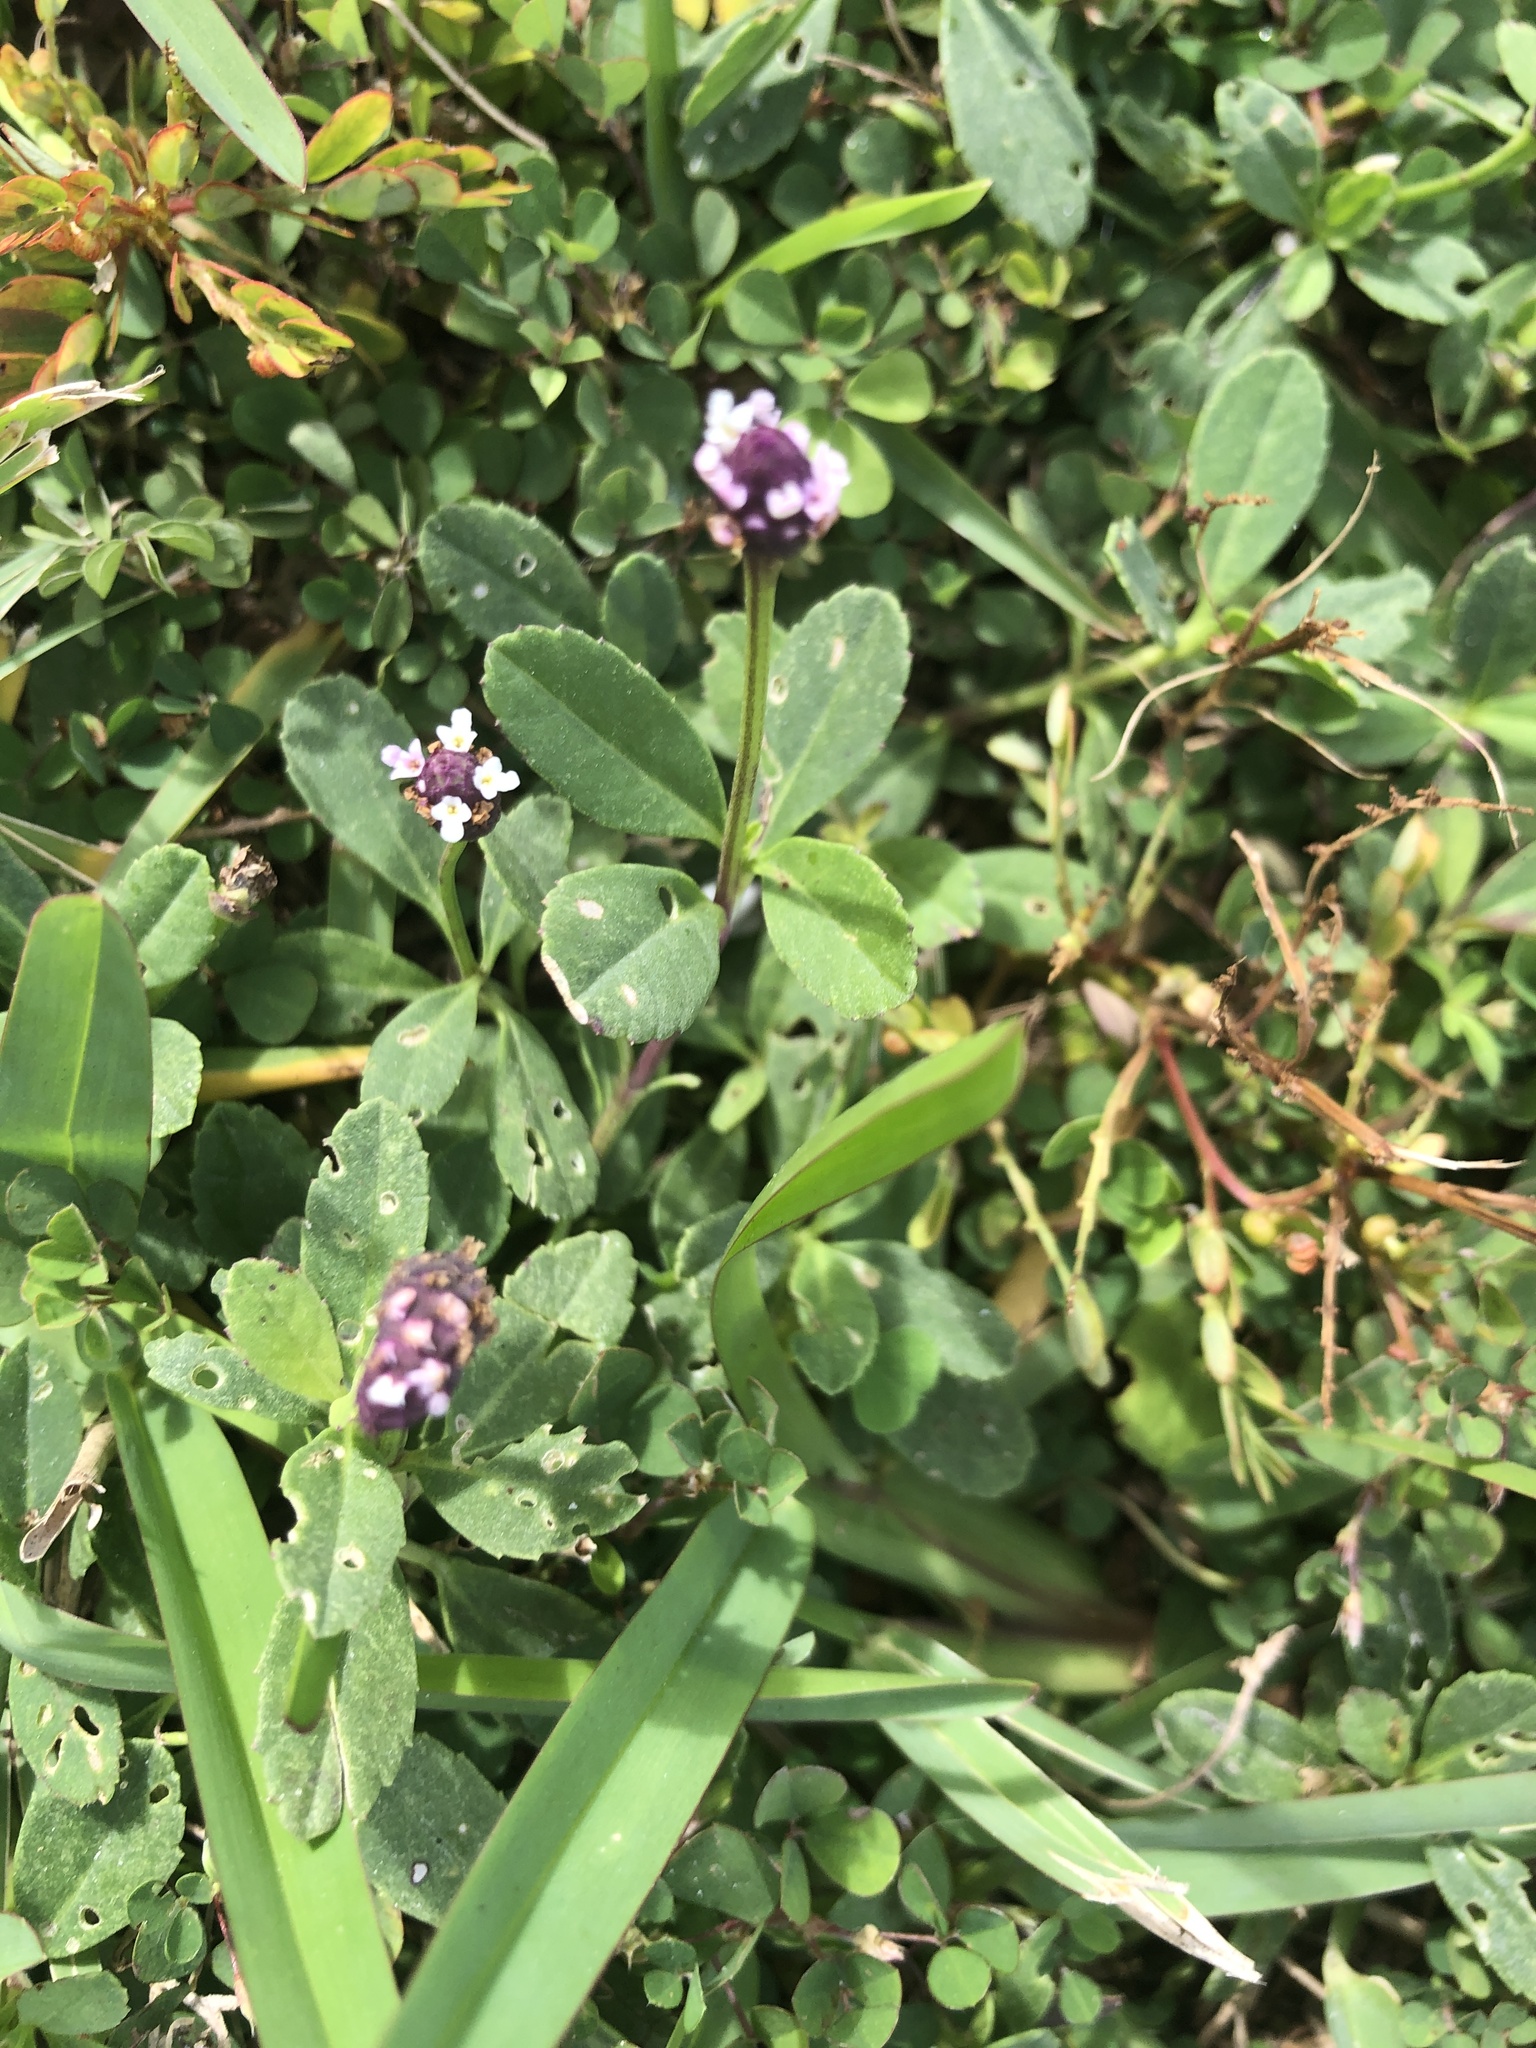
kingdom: Plantae
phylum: Tracheophyta
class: Magnoliopsida
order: Lamiales
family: Verbenaceae
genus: Phyla
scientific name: Phyla nodiflora
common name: Frogfruit
